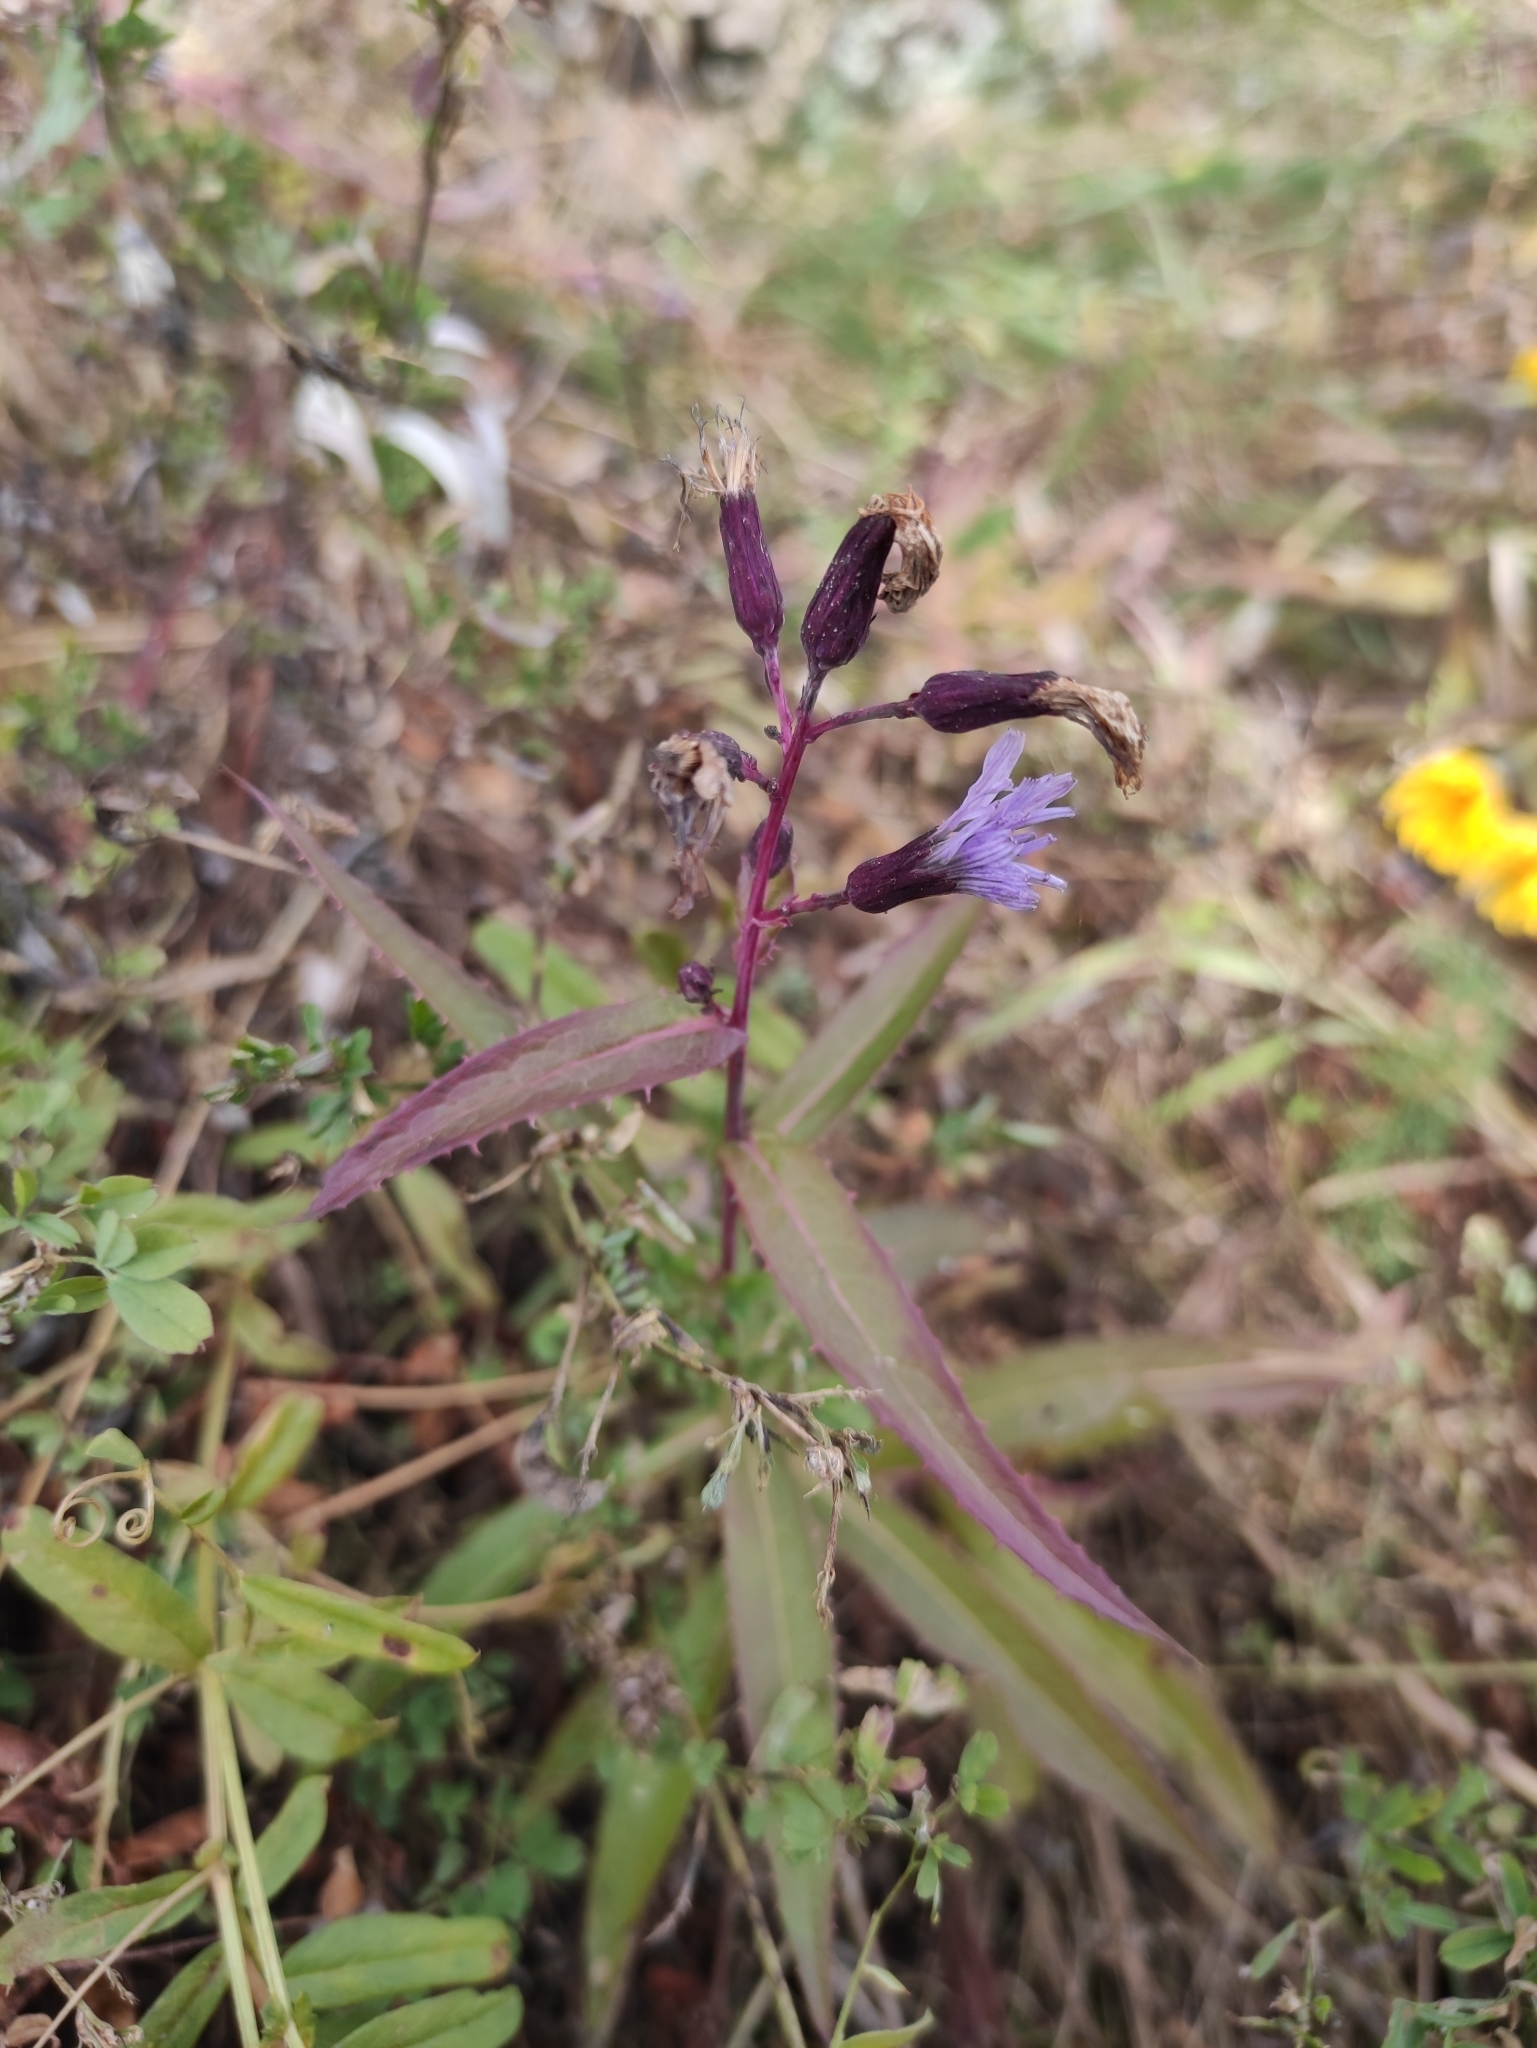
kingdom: Plantae
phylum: Tracheophyta
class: Magnoliopsida
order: Asterales
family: Asteraceae
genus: Lactuca
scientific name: Lactuca sibirica
